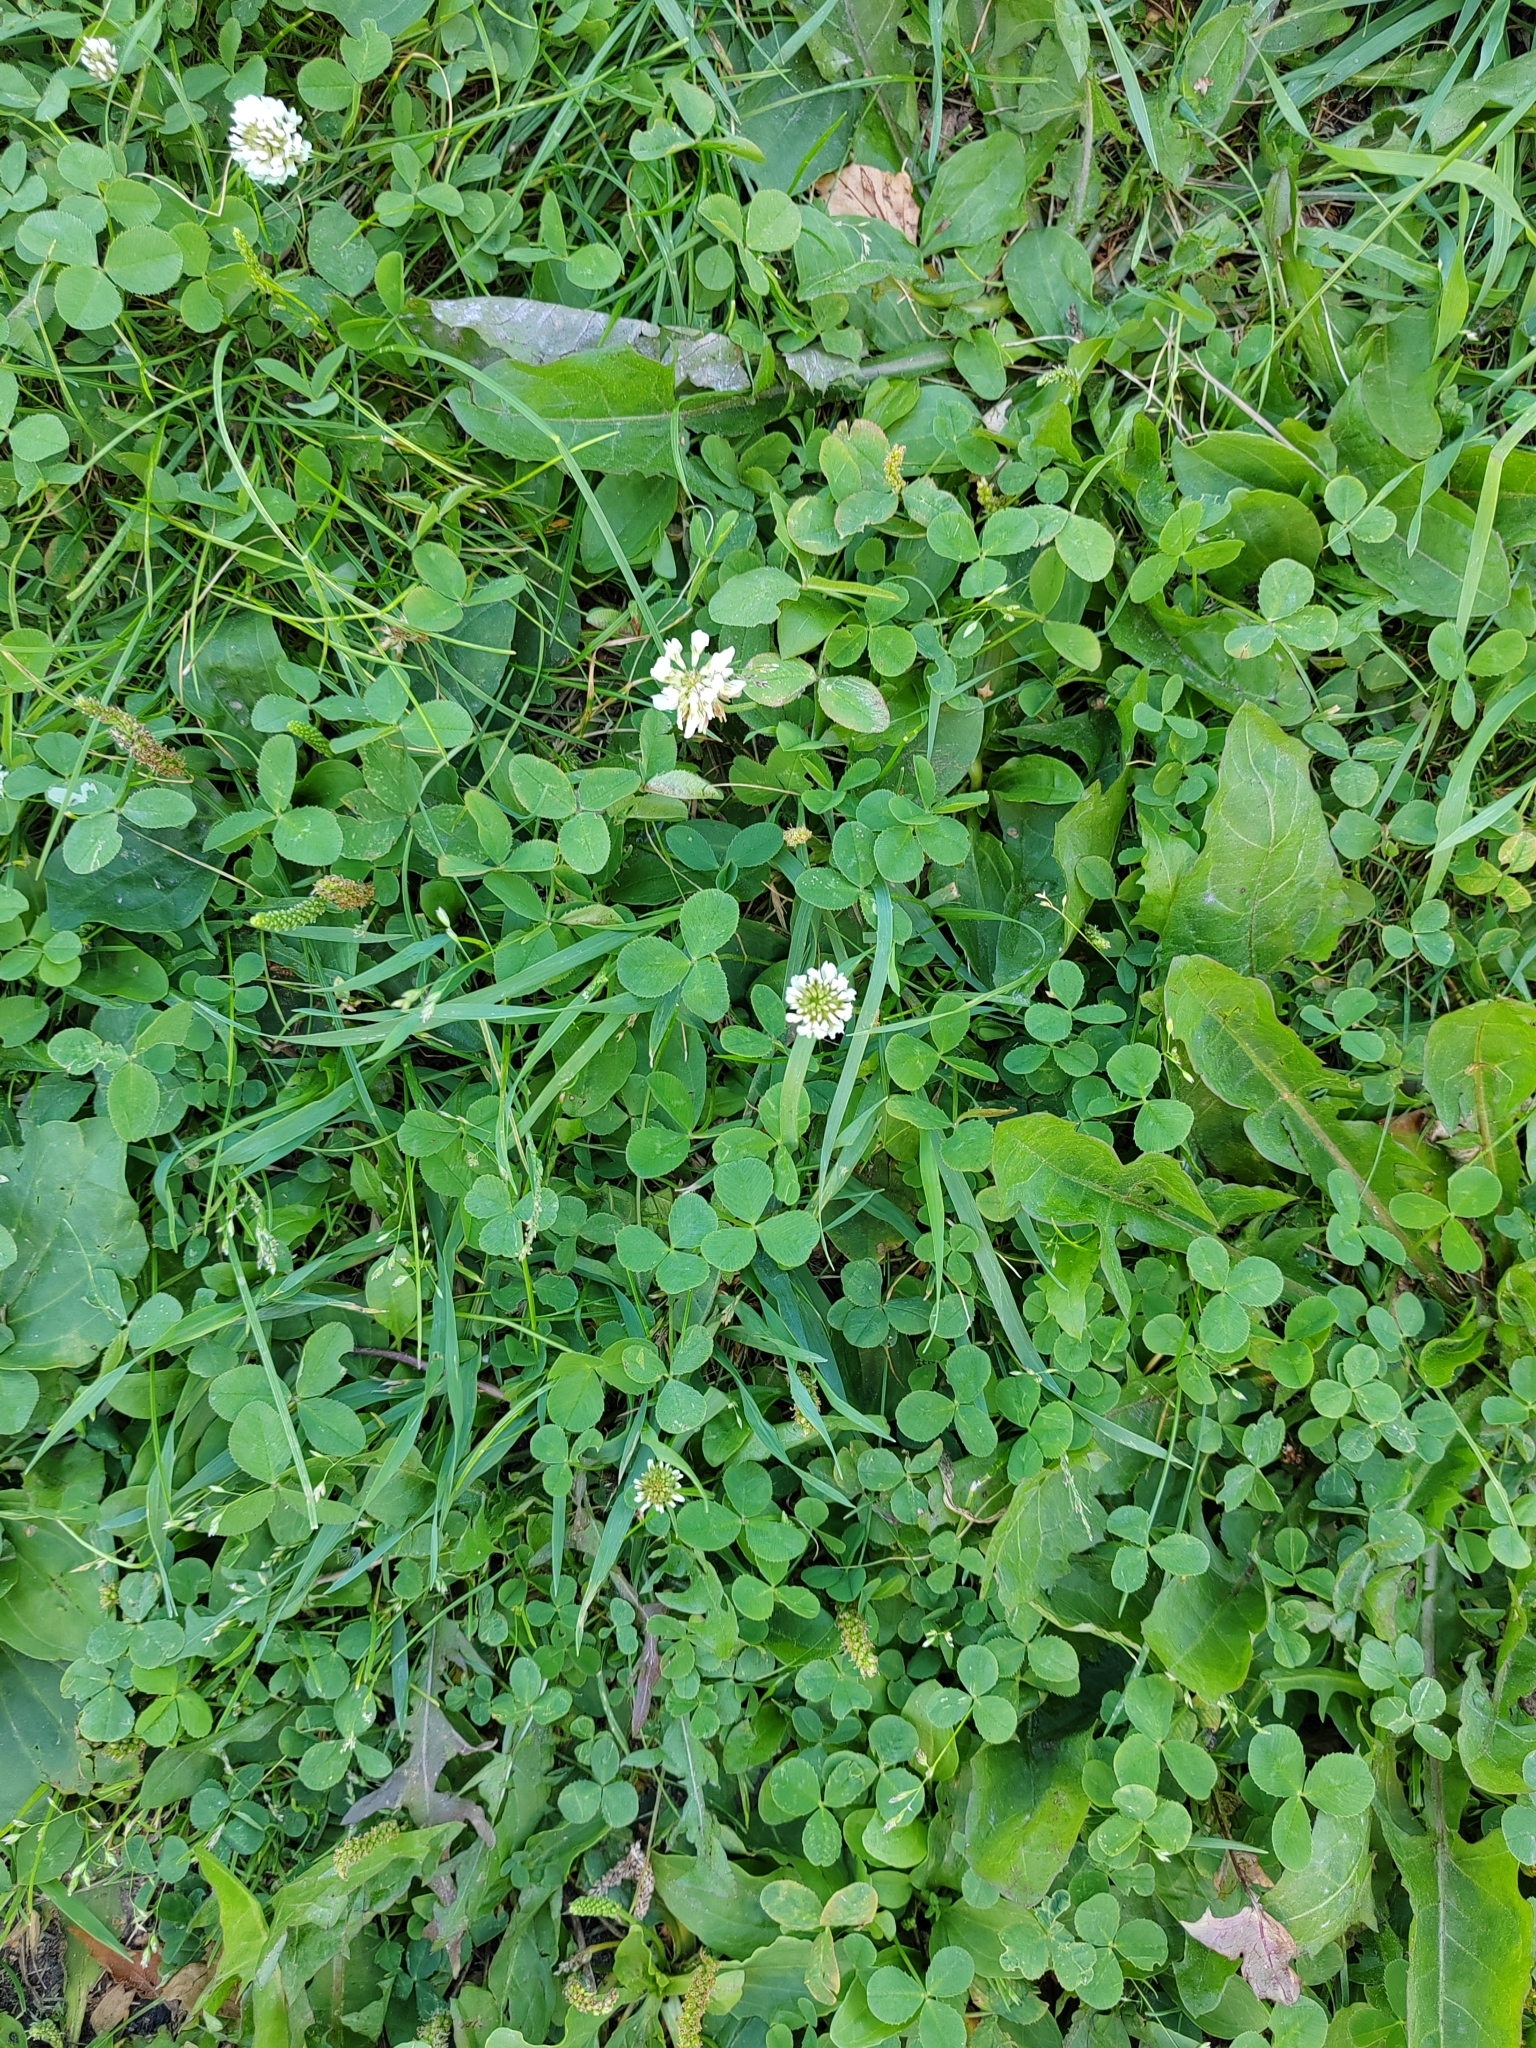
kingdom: Plantae
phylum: Tracheophyta
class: Magnoliopsida
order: Fabales
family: Fabaceae
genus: Trifolium
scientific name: Trifolium repens
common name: White clover
